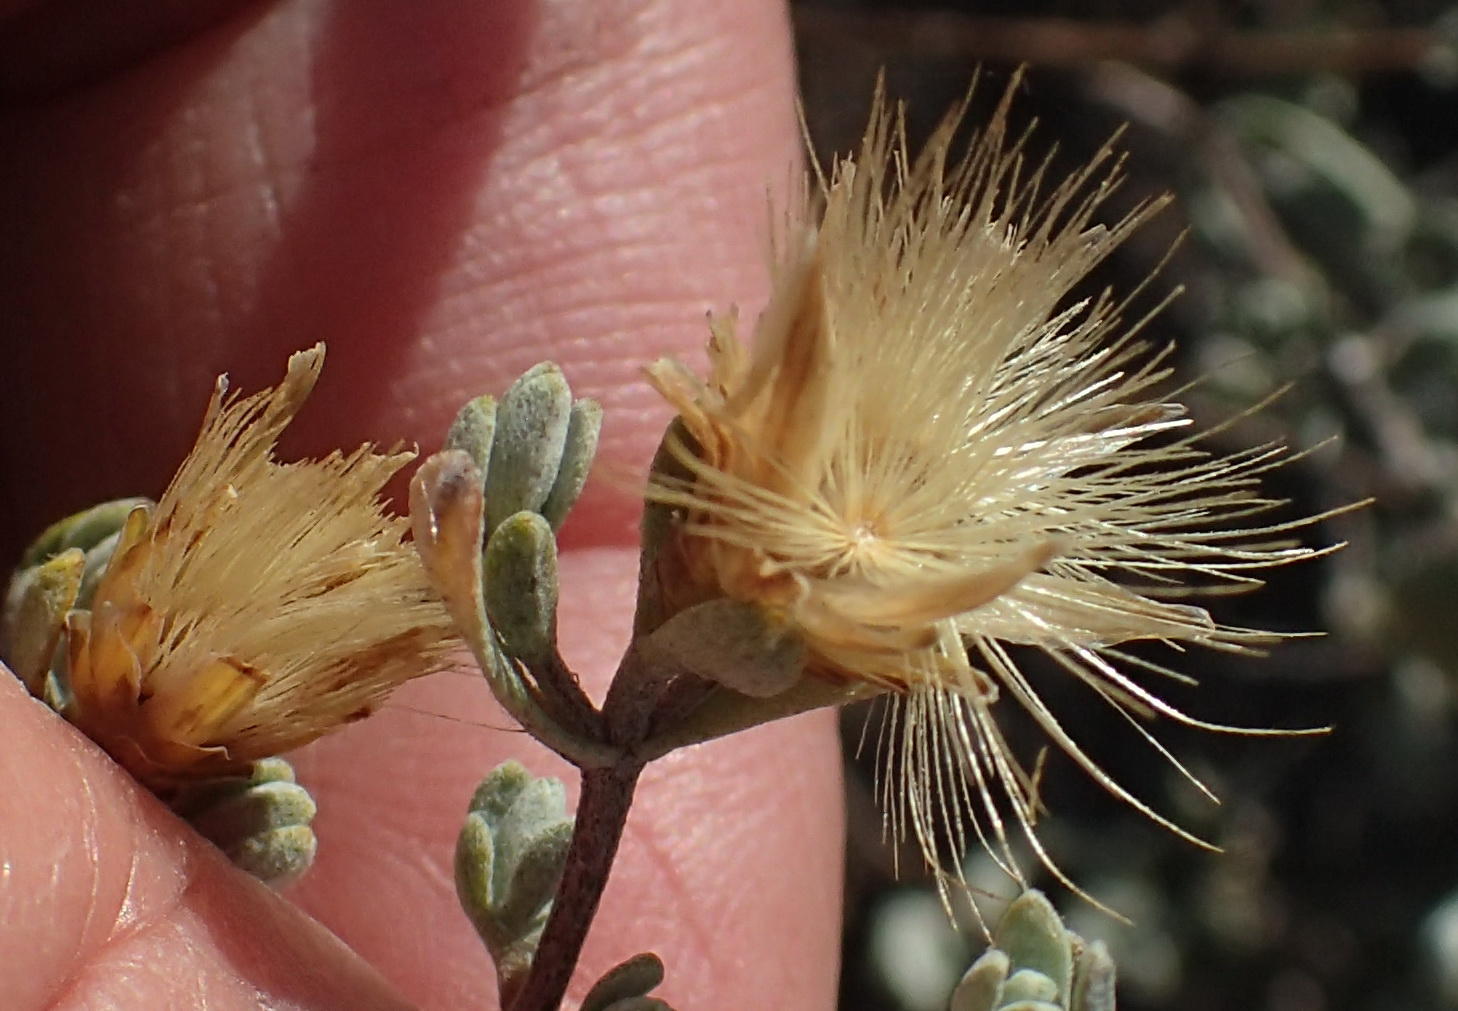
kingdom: Plantae
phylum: Tracheophyta
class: Magnoliopsida
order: Asterales
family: Asteraceae
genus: Pteronia
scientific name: Pteronia incana
